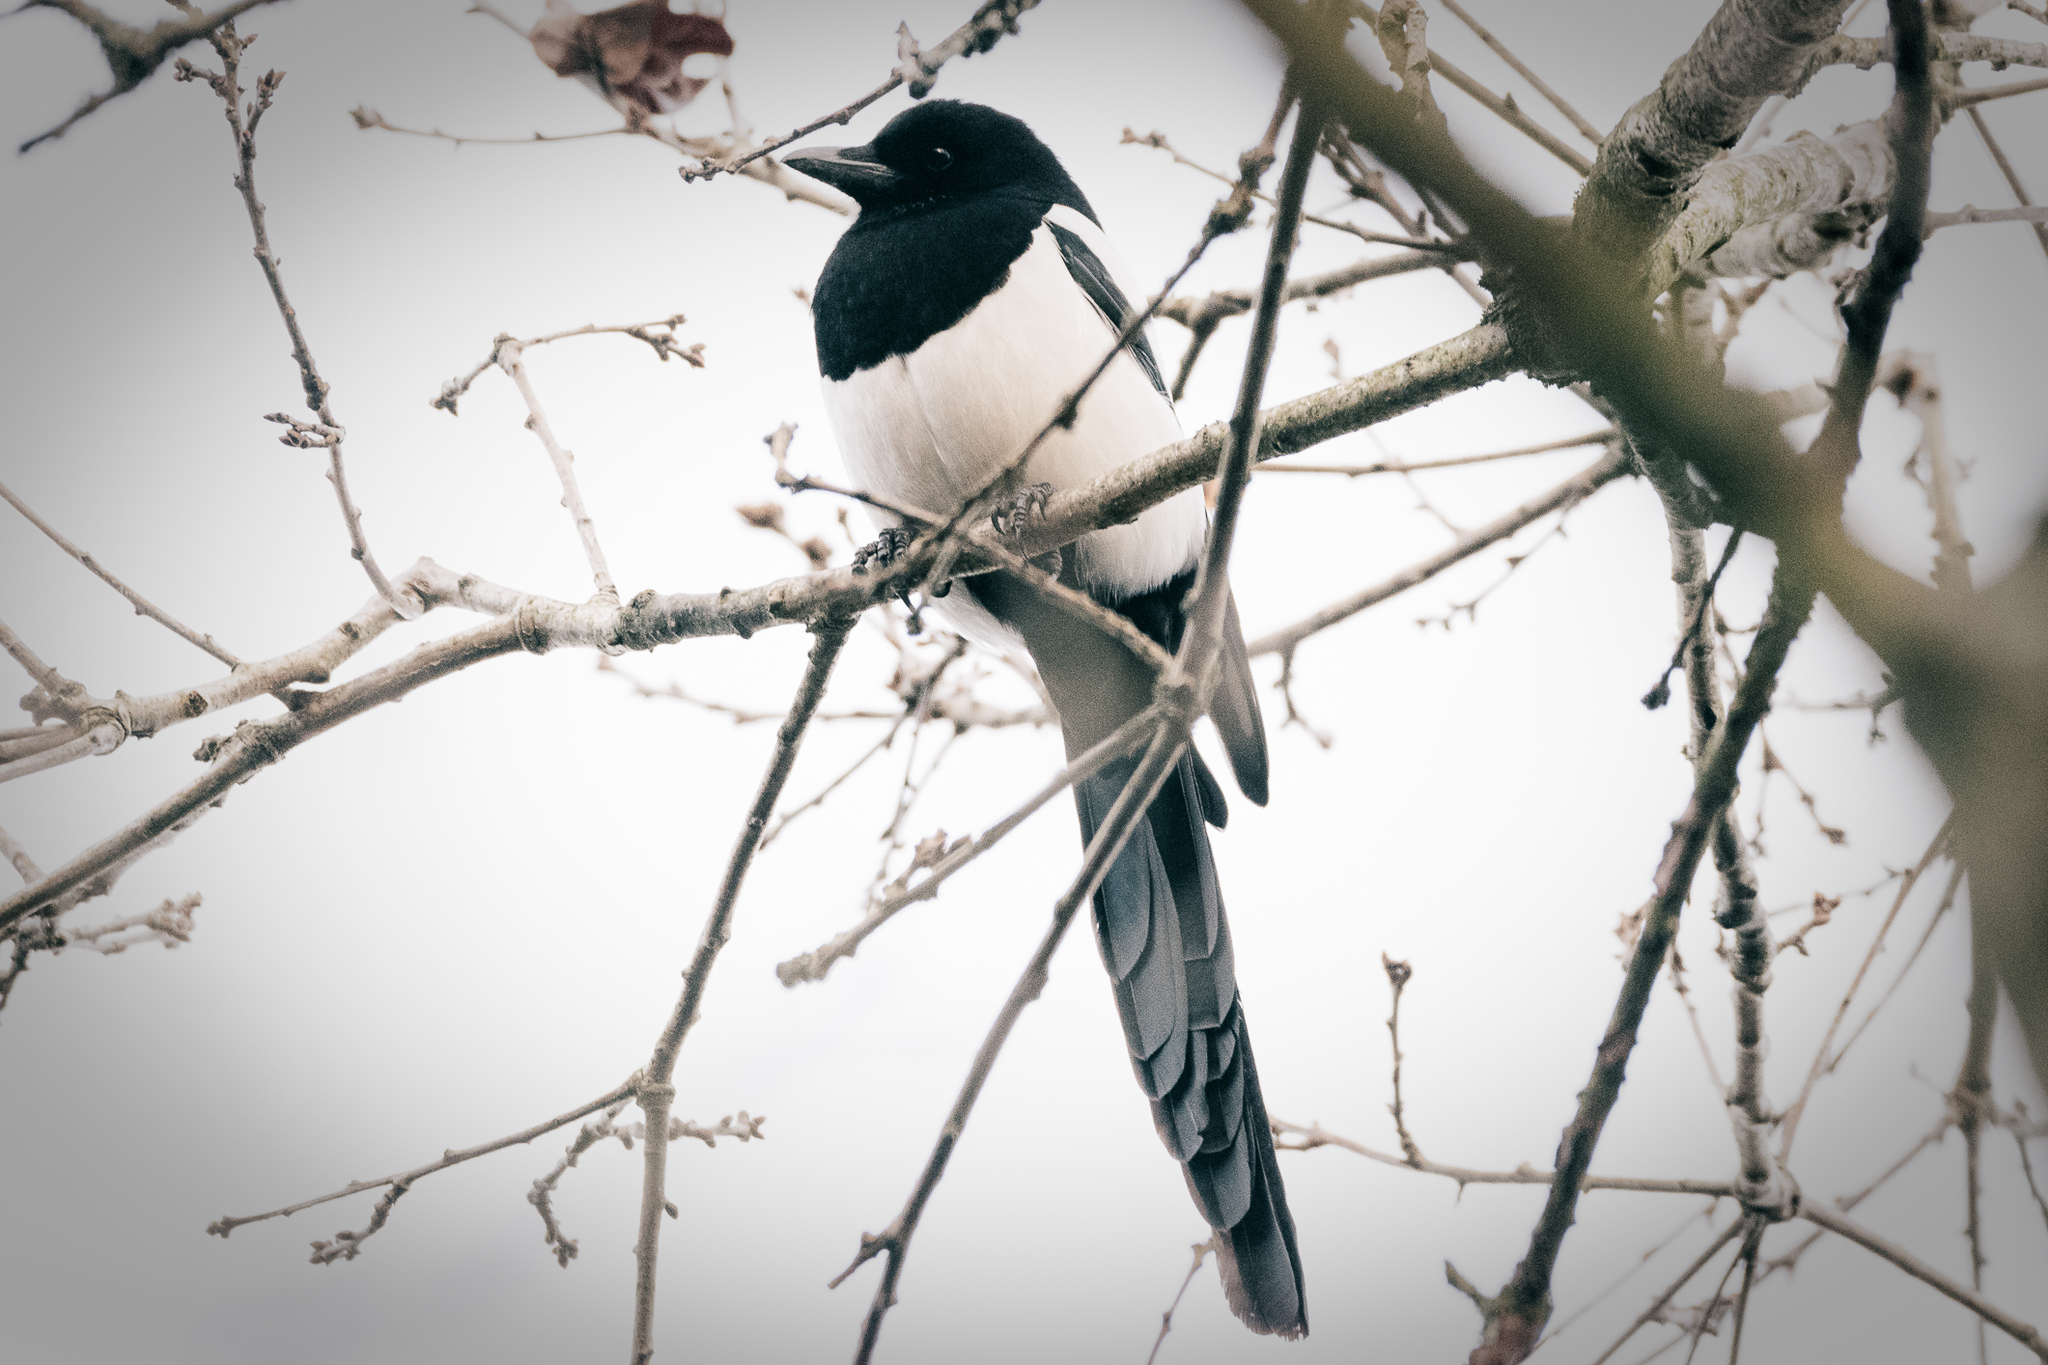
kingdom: Animalia
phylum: Chordata
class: Aves
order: Passeriformes
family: Corvidae
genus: Pica
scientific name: Pica pica
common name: Eurasian magpie
